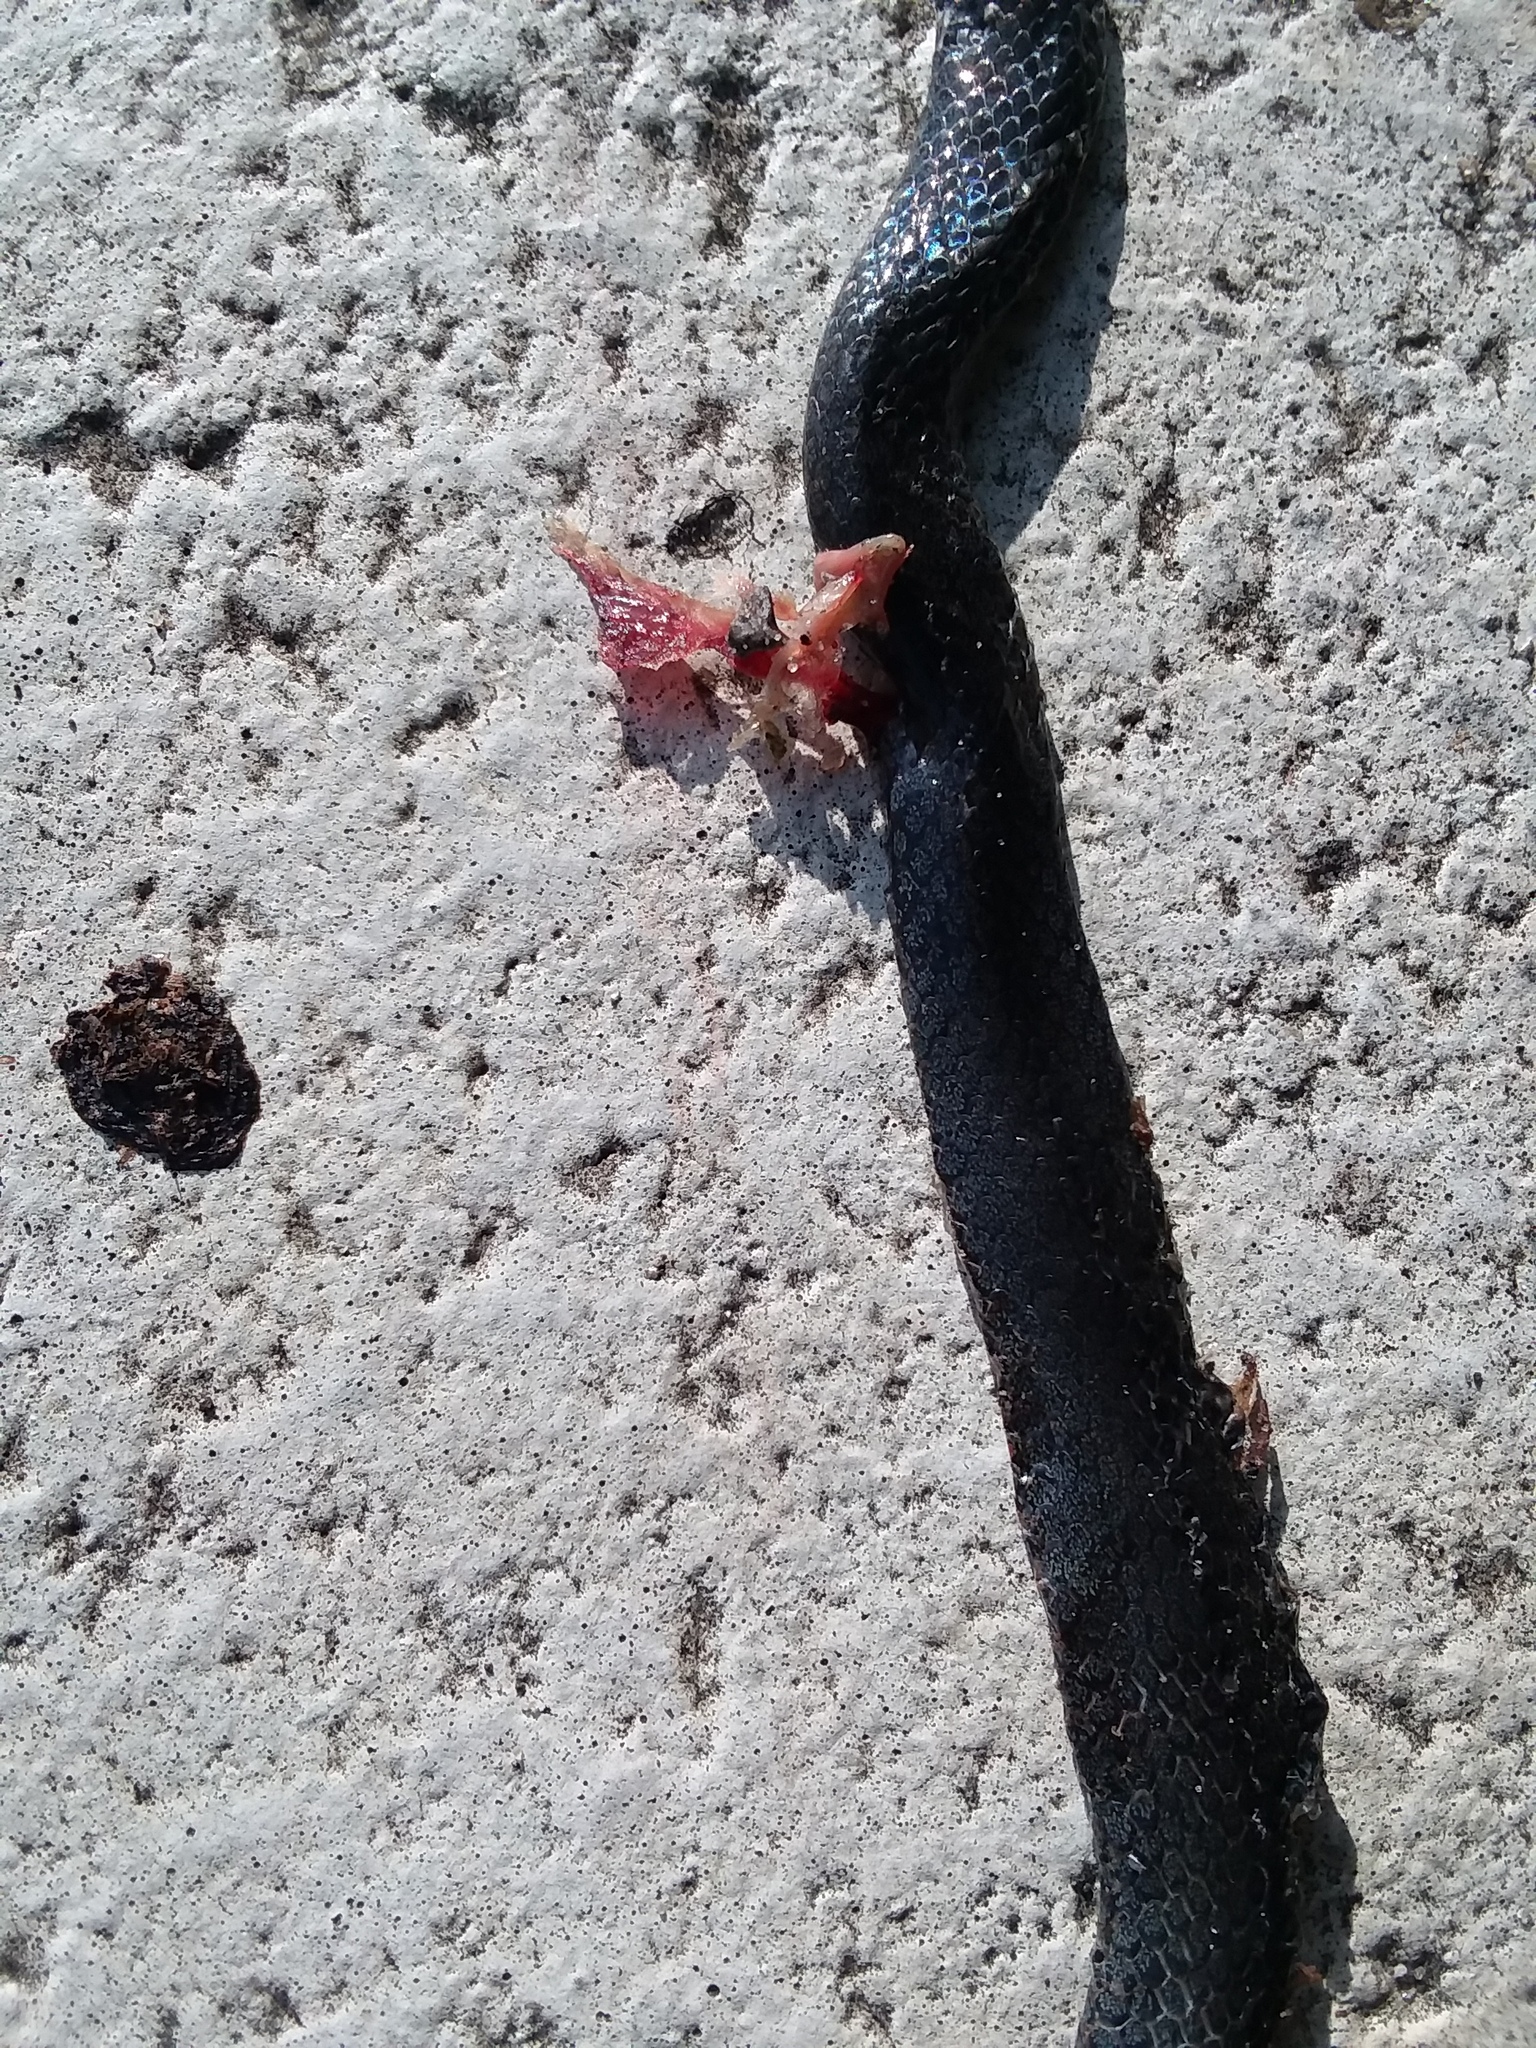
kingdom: Animalia
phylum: Chordata
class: Squamata
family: Colubridae
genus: Diadophis
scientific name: Diadophis punctatus
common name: Ringneck snake
